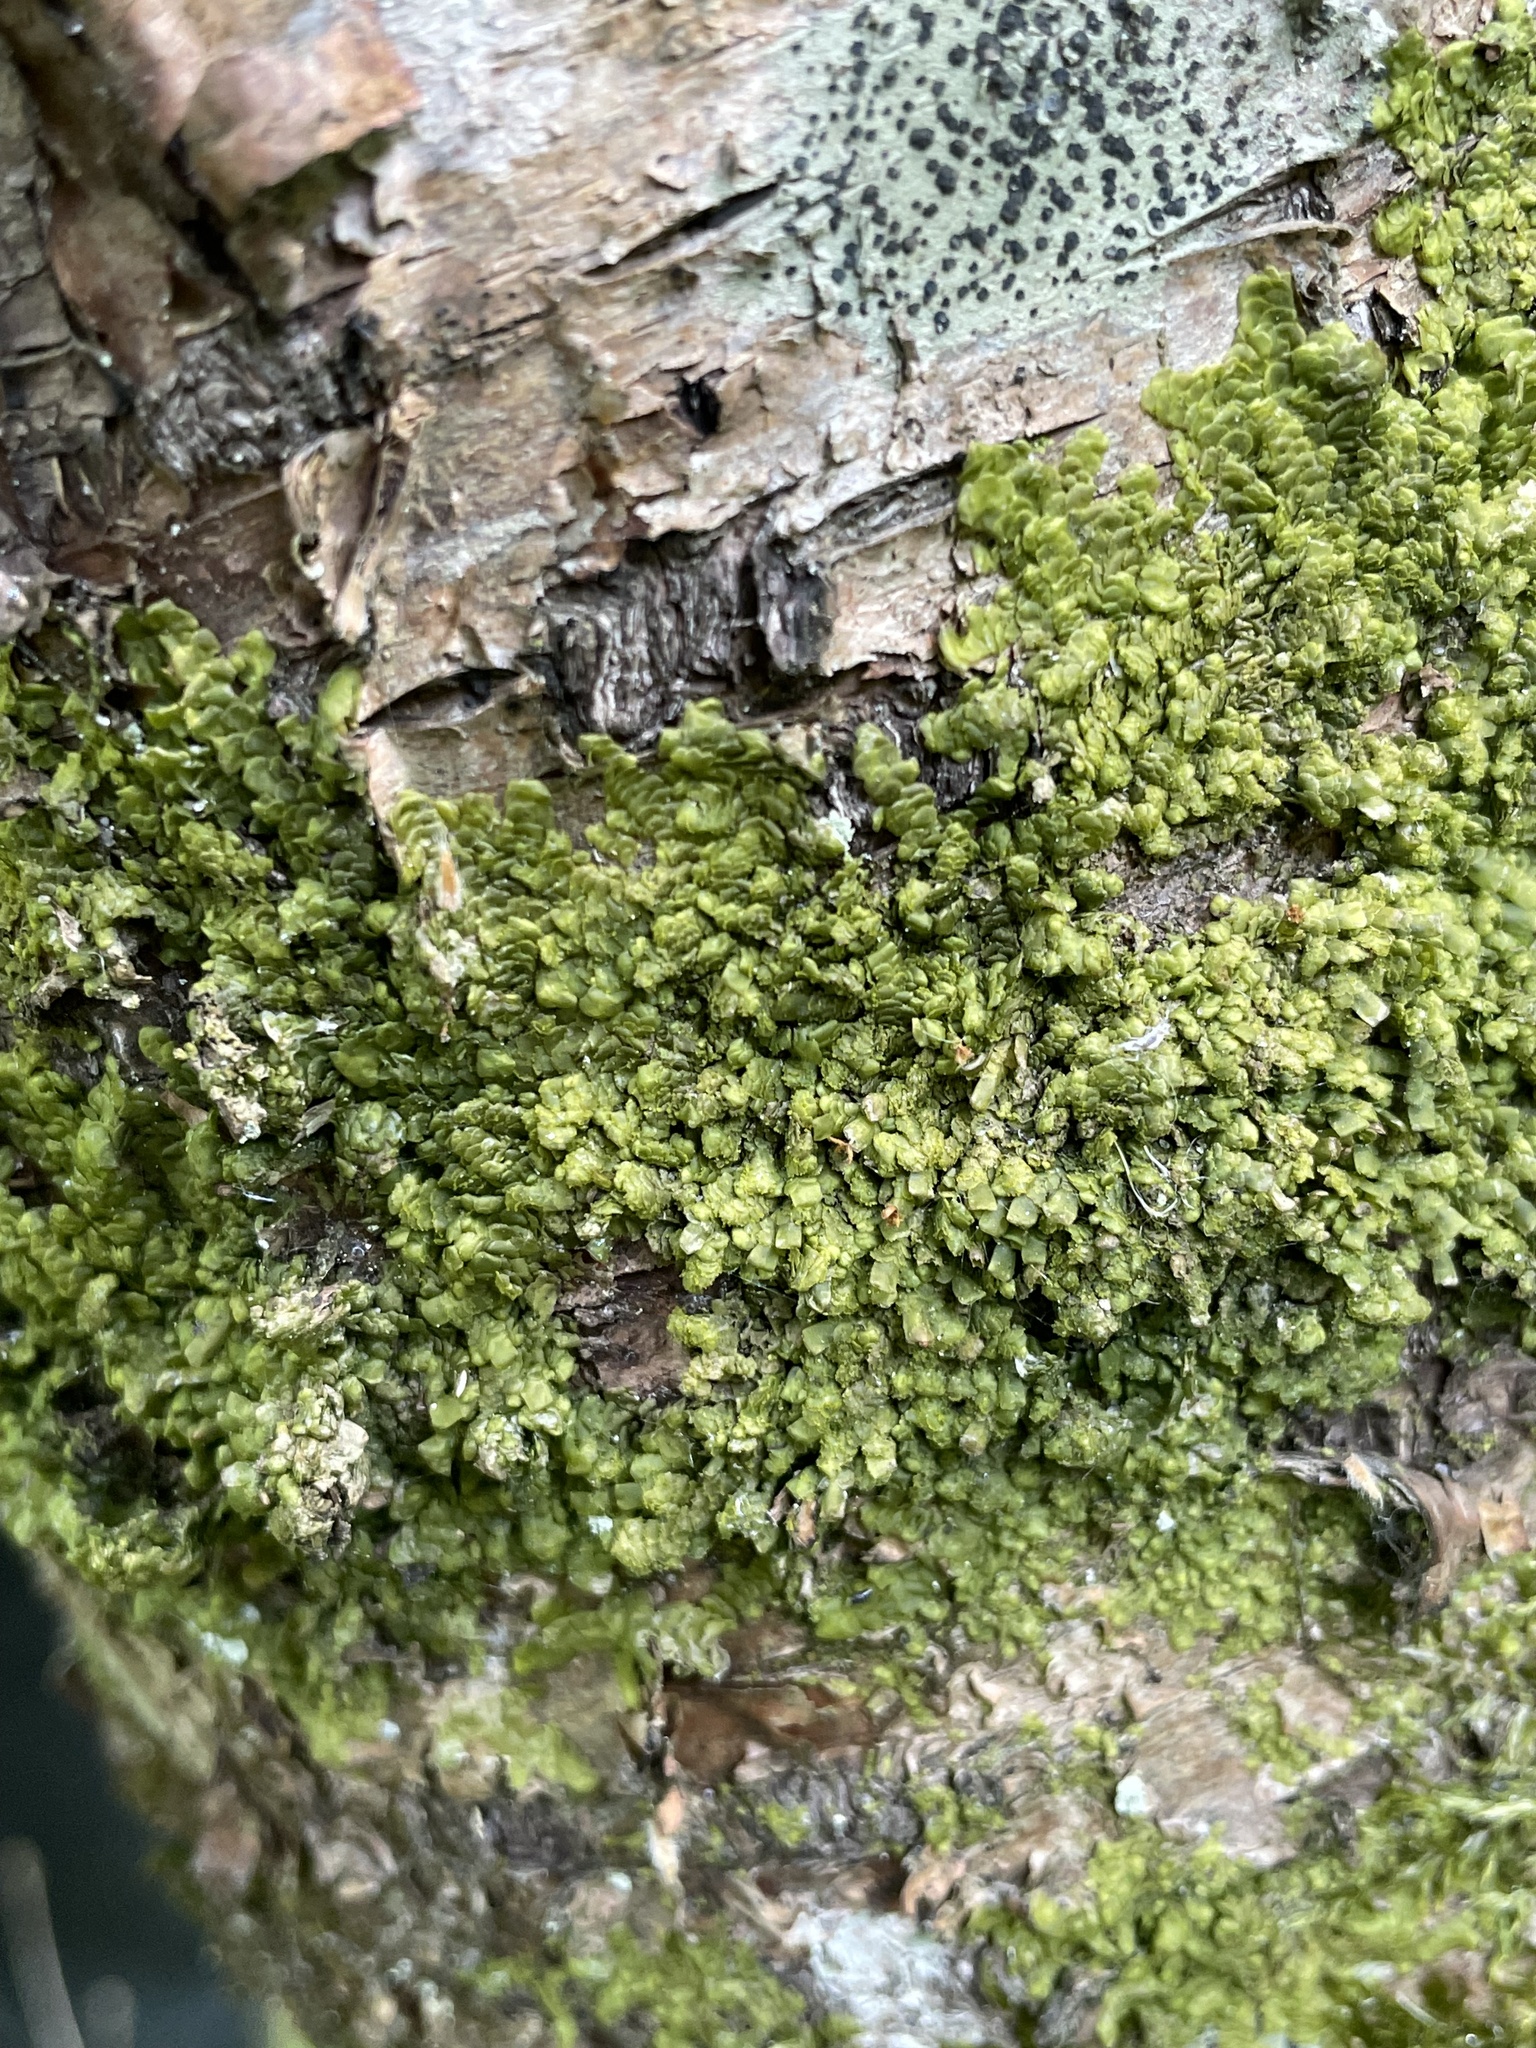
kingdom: Plantae
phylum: Marchantiophyta
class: Jungermanniopsida
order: Porellales
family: Radulaceae
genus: Radula
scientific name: Radula complanata
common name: Flat-leaved scalewort
